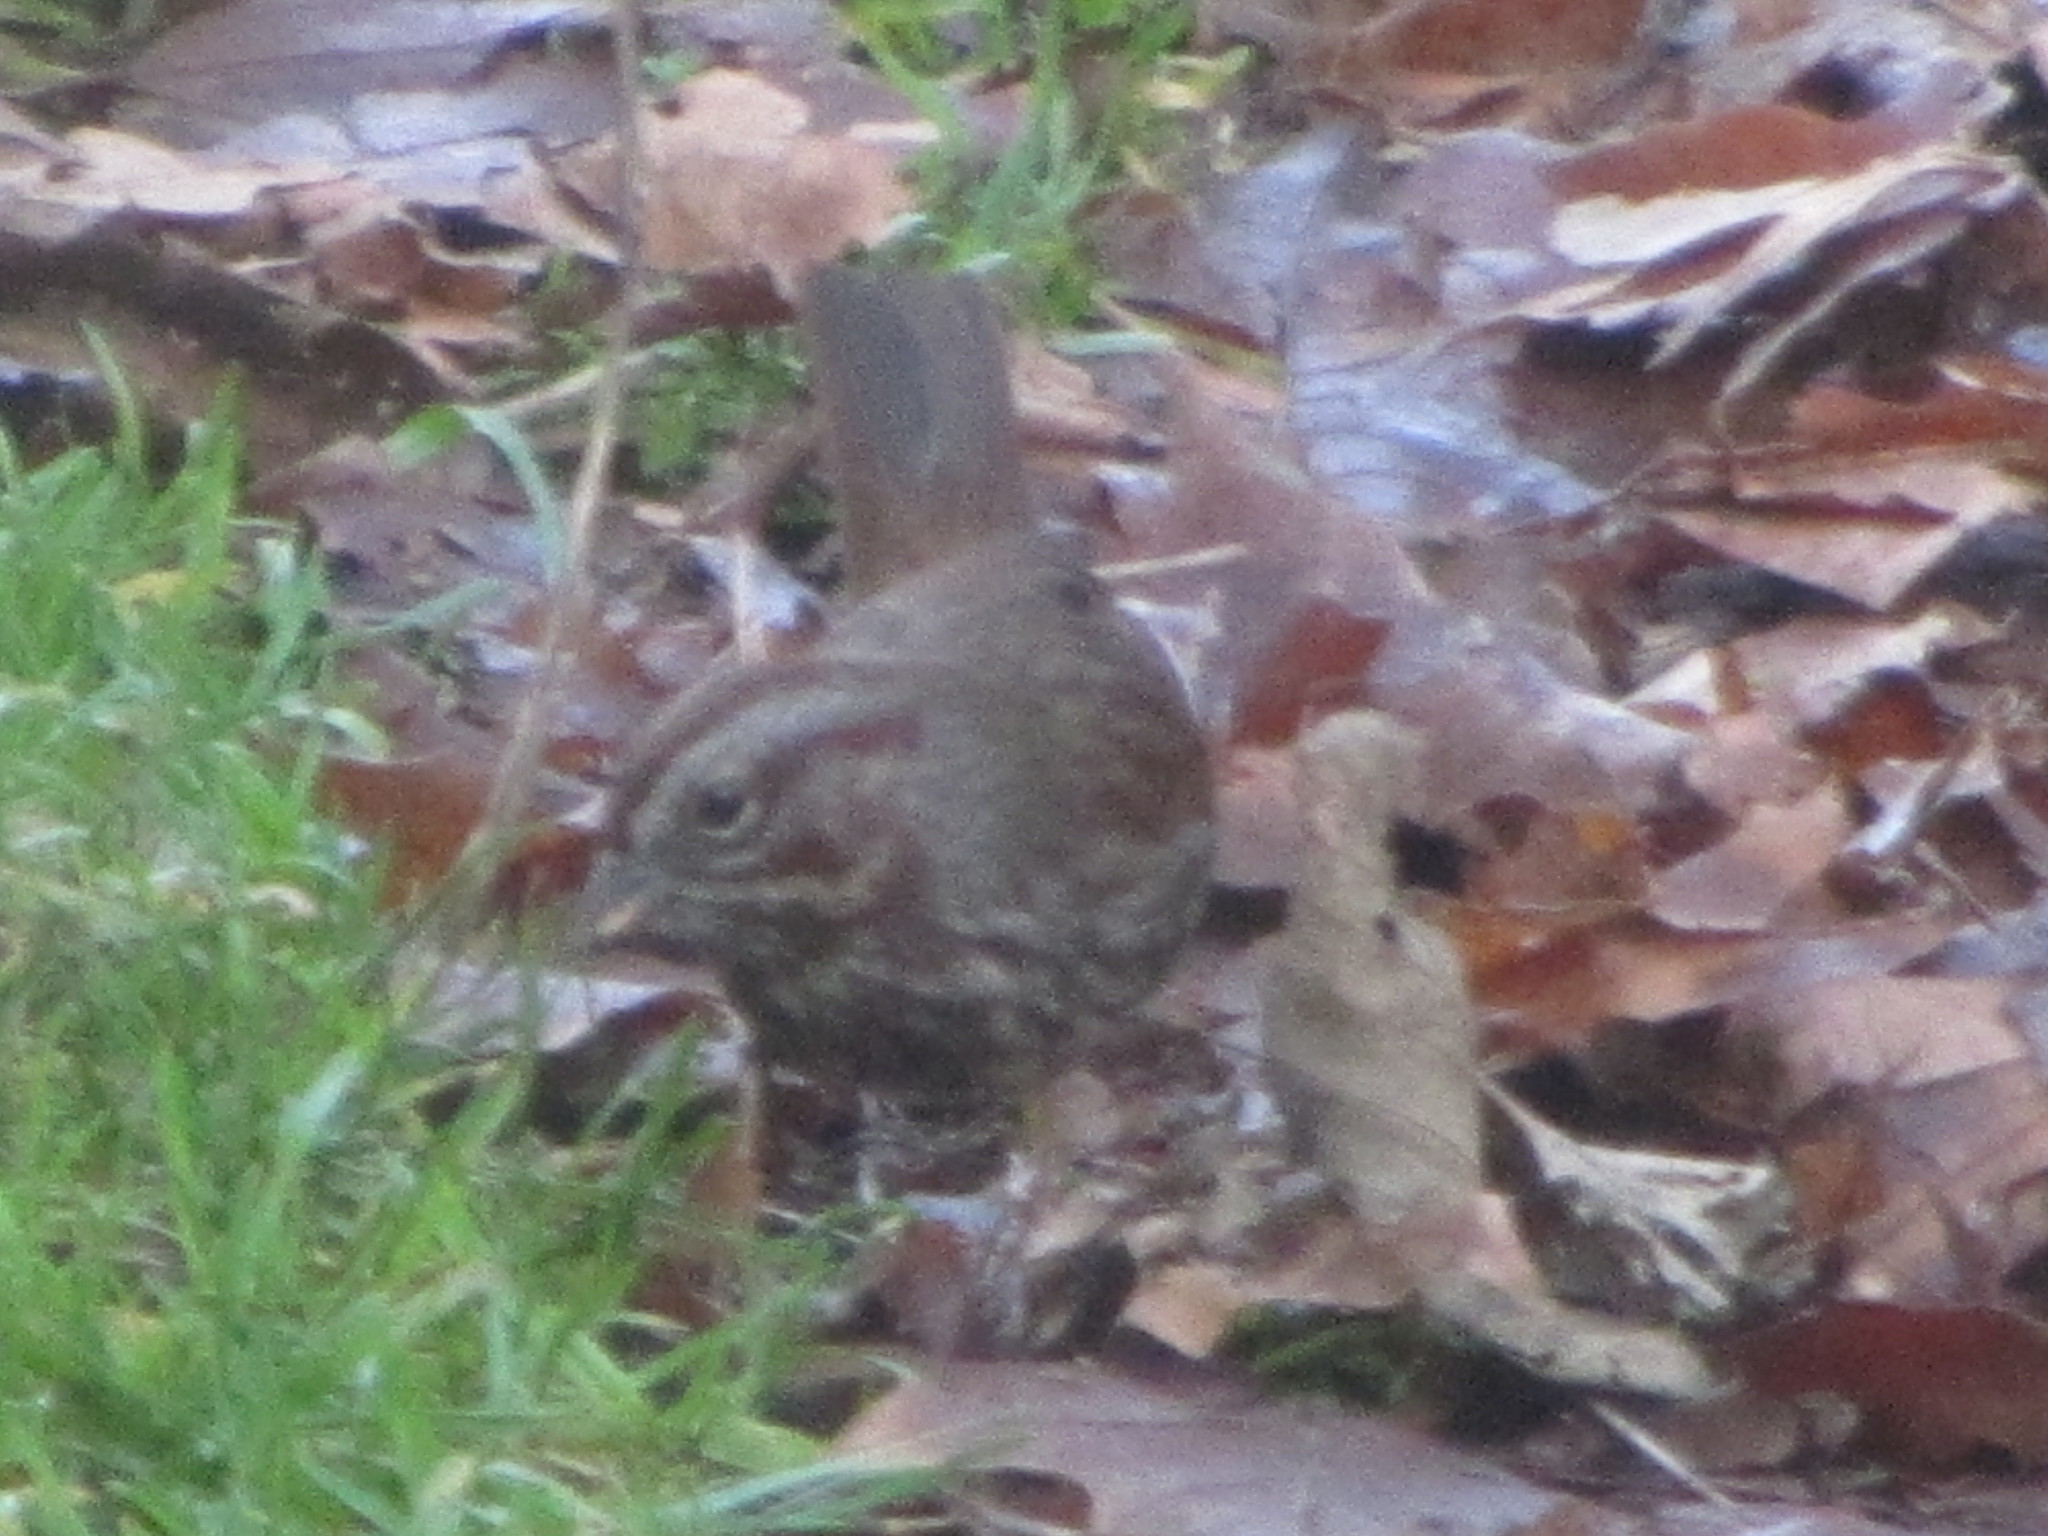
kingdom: Animalia
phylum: Chordata
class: Aves
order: Passeriformes
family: Passerellidae
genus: Melospiza
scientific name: Melospiza melodia
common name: Song sparrow
